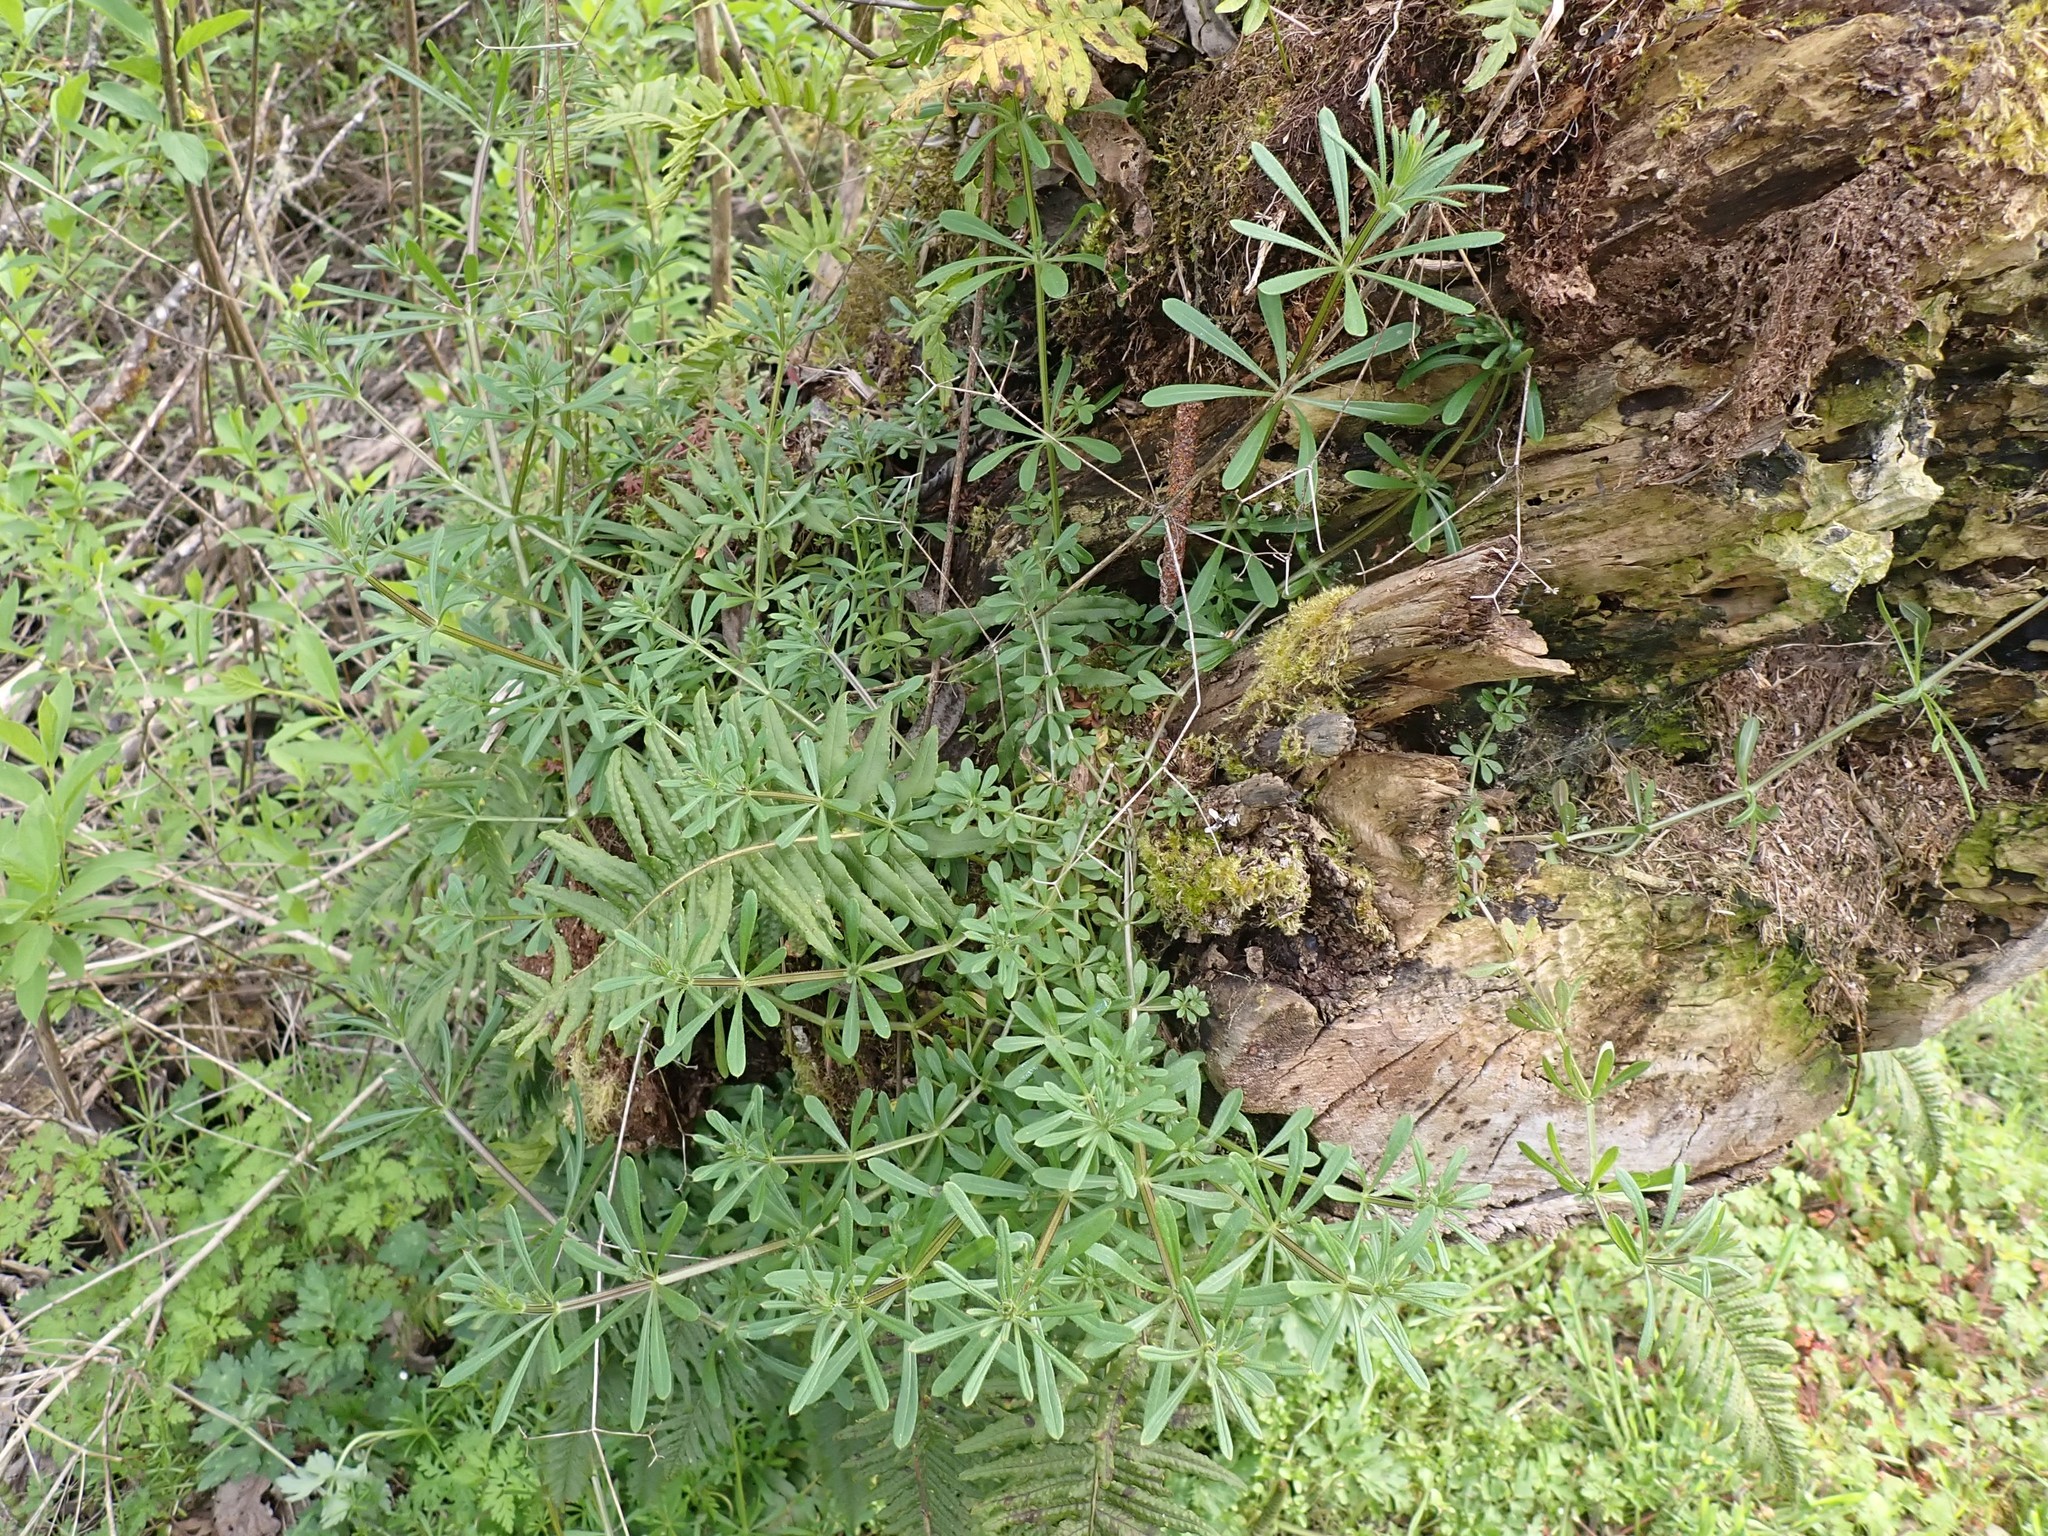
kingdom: Plantae
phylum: Tracheophyta
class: Magnoliopsida
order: Gentianales
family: Rubiaceae
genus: Galium
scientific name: Galium aparine
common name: Cleavers
